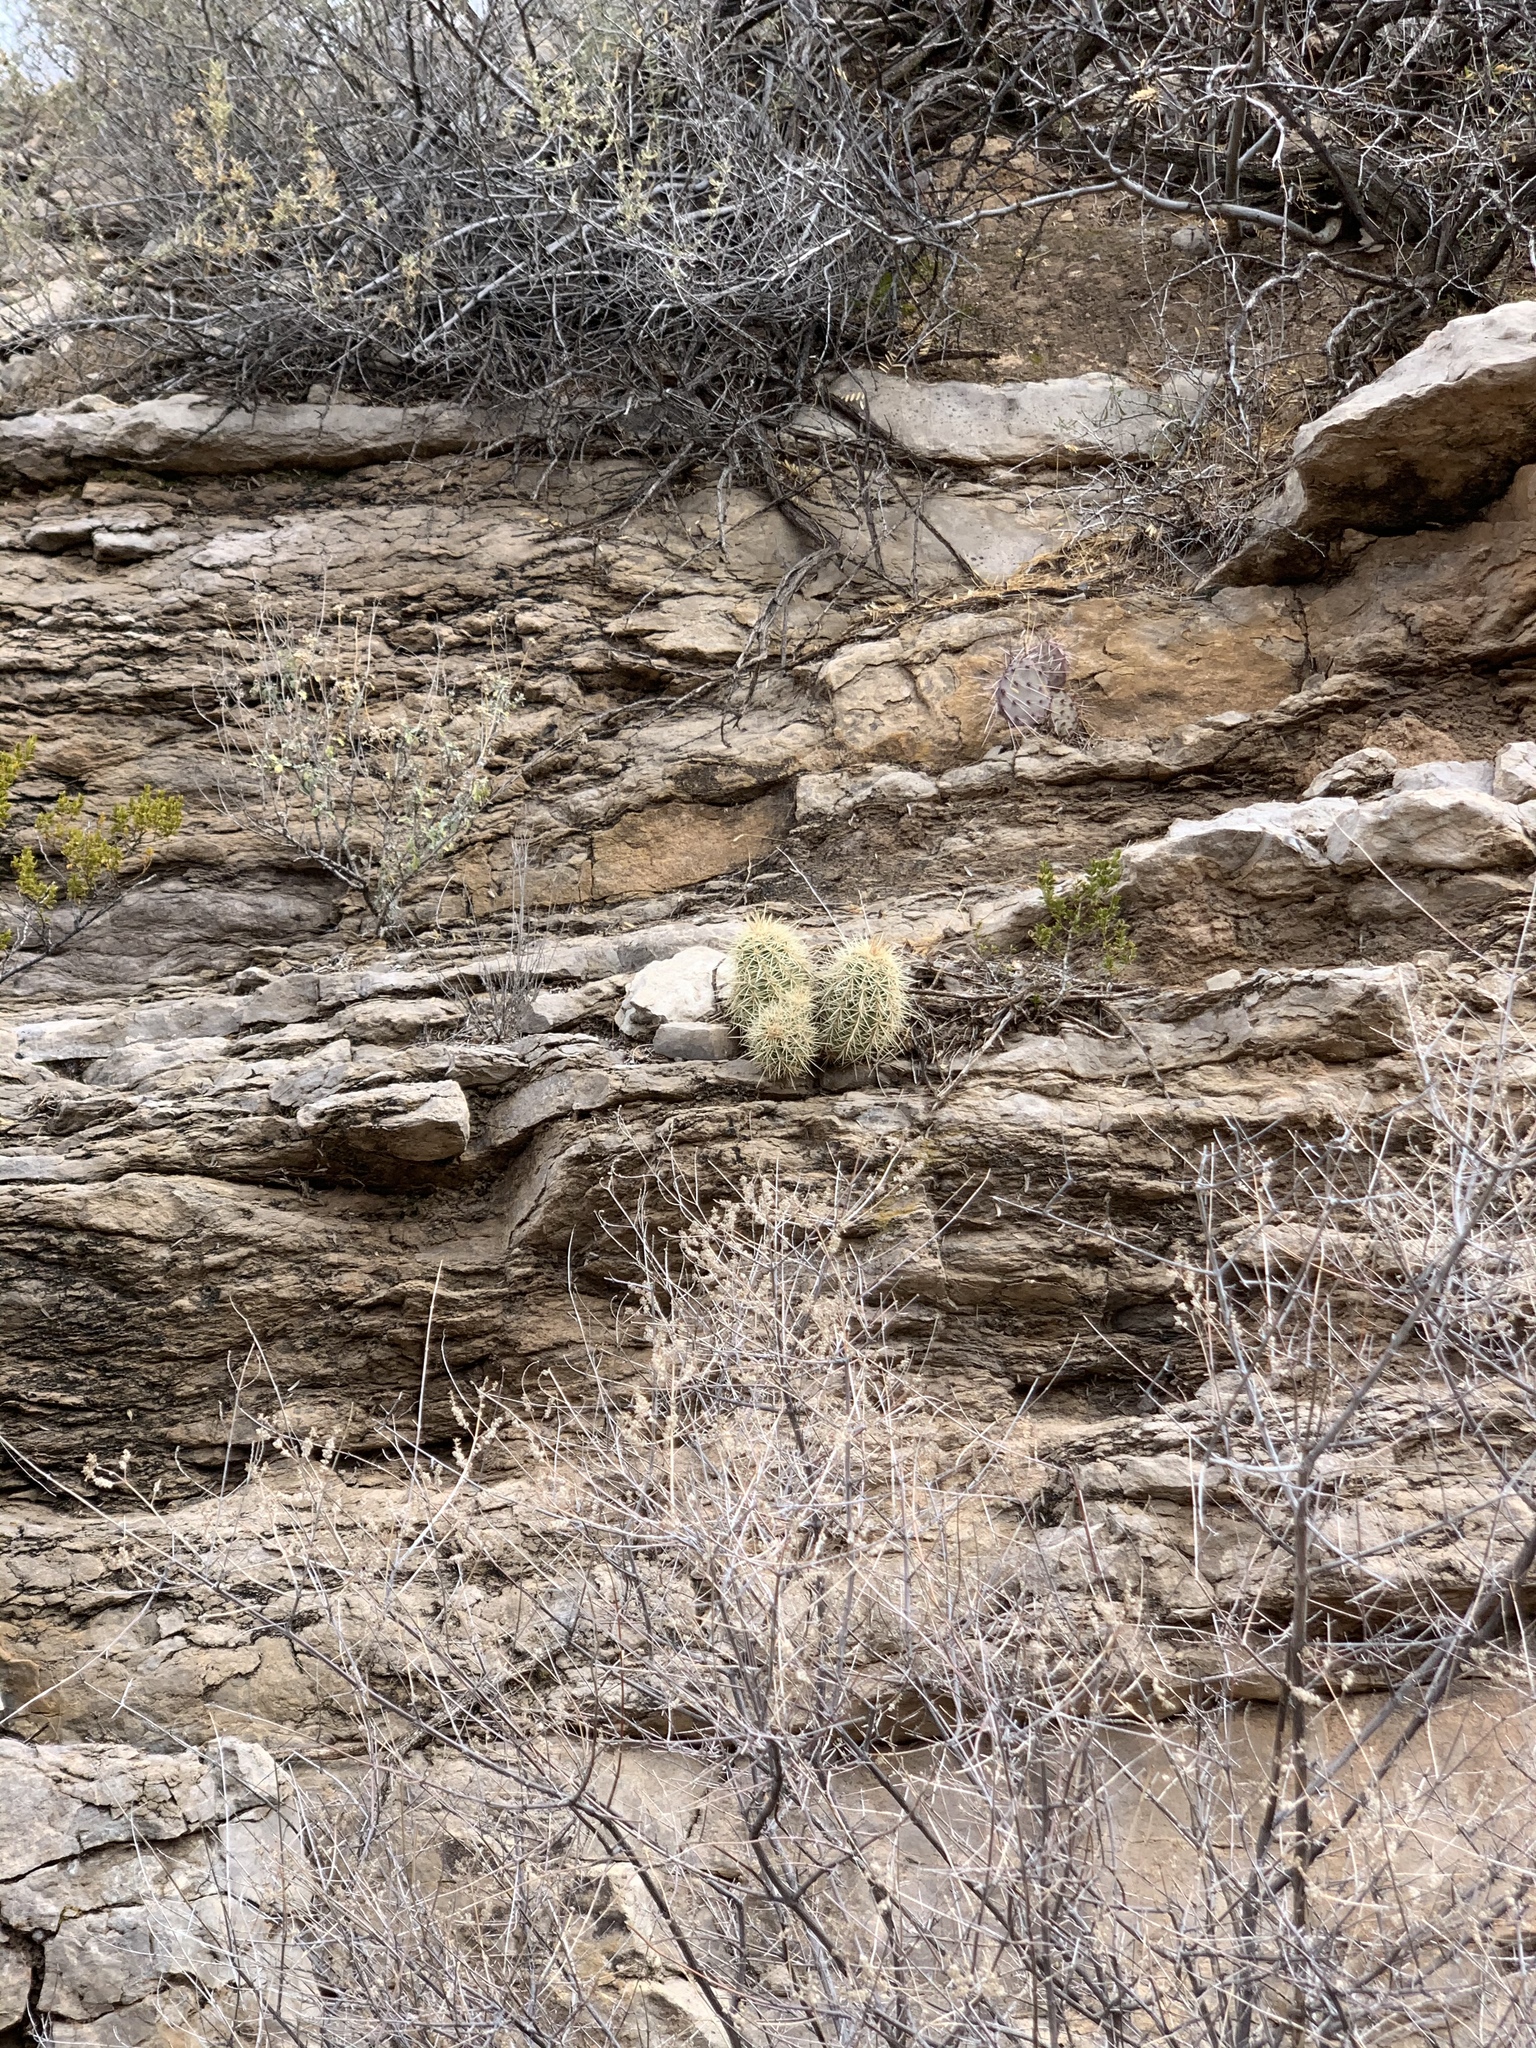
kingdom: Plantae
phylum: Tracheophyta
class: Magnoliopsida
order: Caryophyllales
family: Cactaceae
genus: Echinocereus
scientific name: Echinocereus coccineus
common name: Scarlet hedgehog cactus
